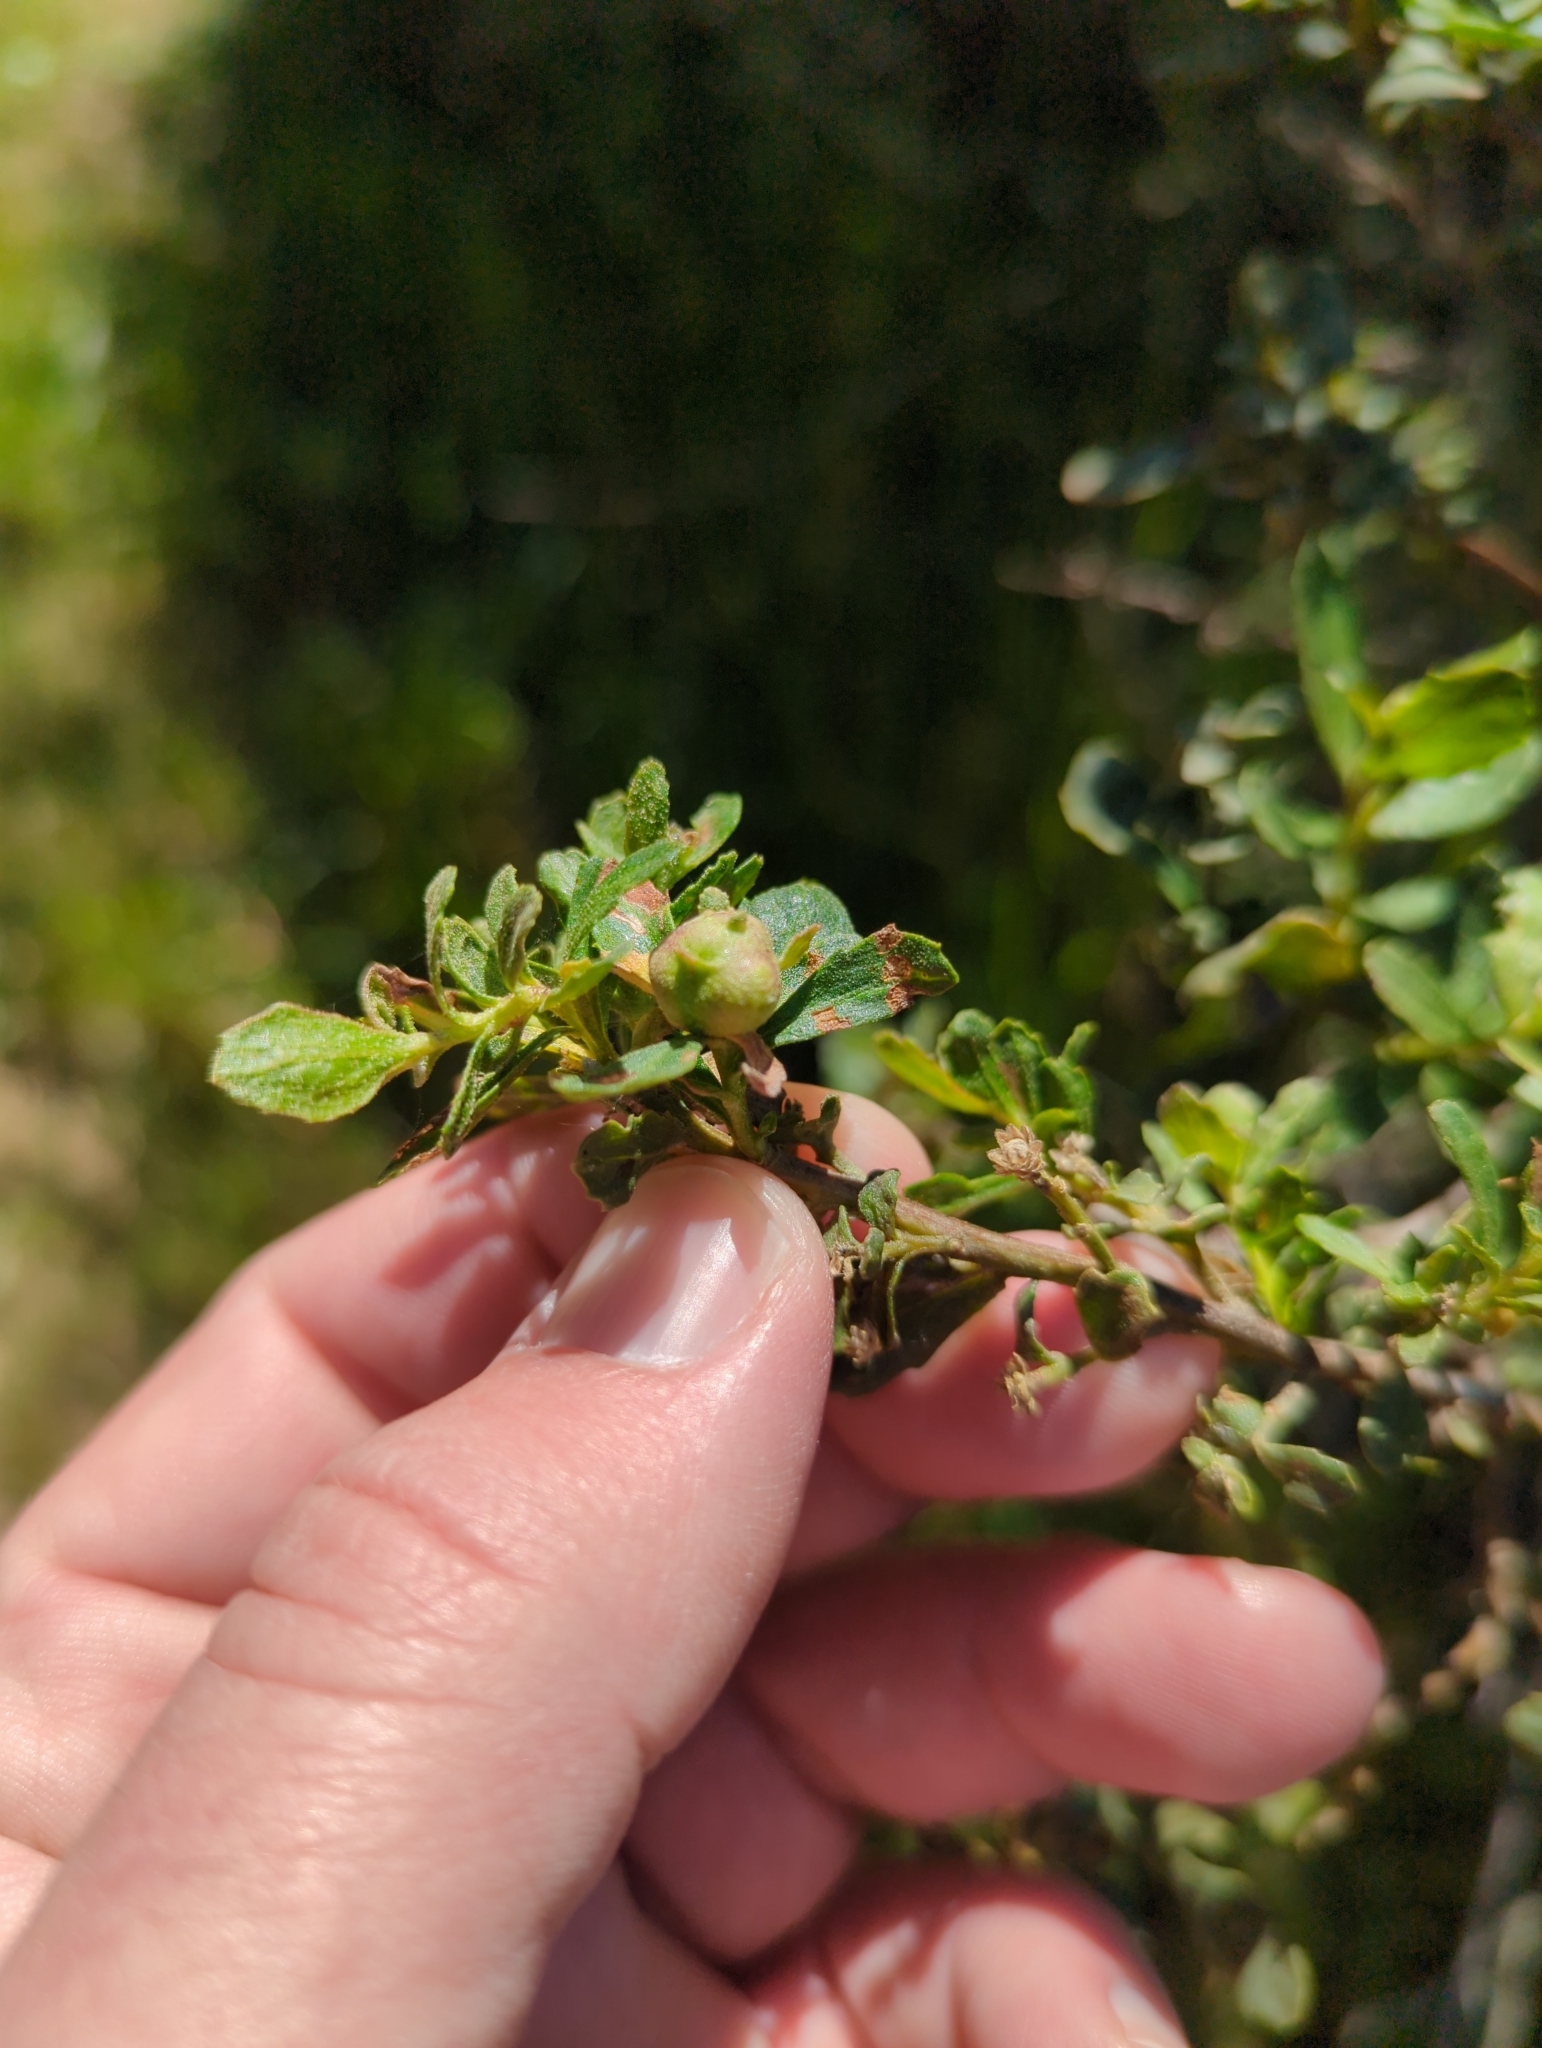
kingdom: Animalia
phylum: Arthropoda
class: Insecta
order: Diptera
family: Cecidomyiidae
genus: Rhopalomyia
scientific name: Rhopalomyia californica
